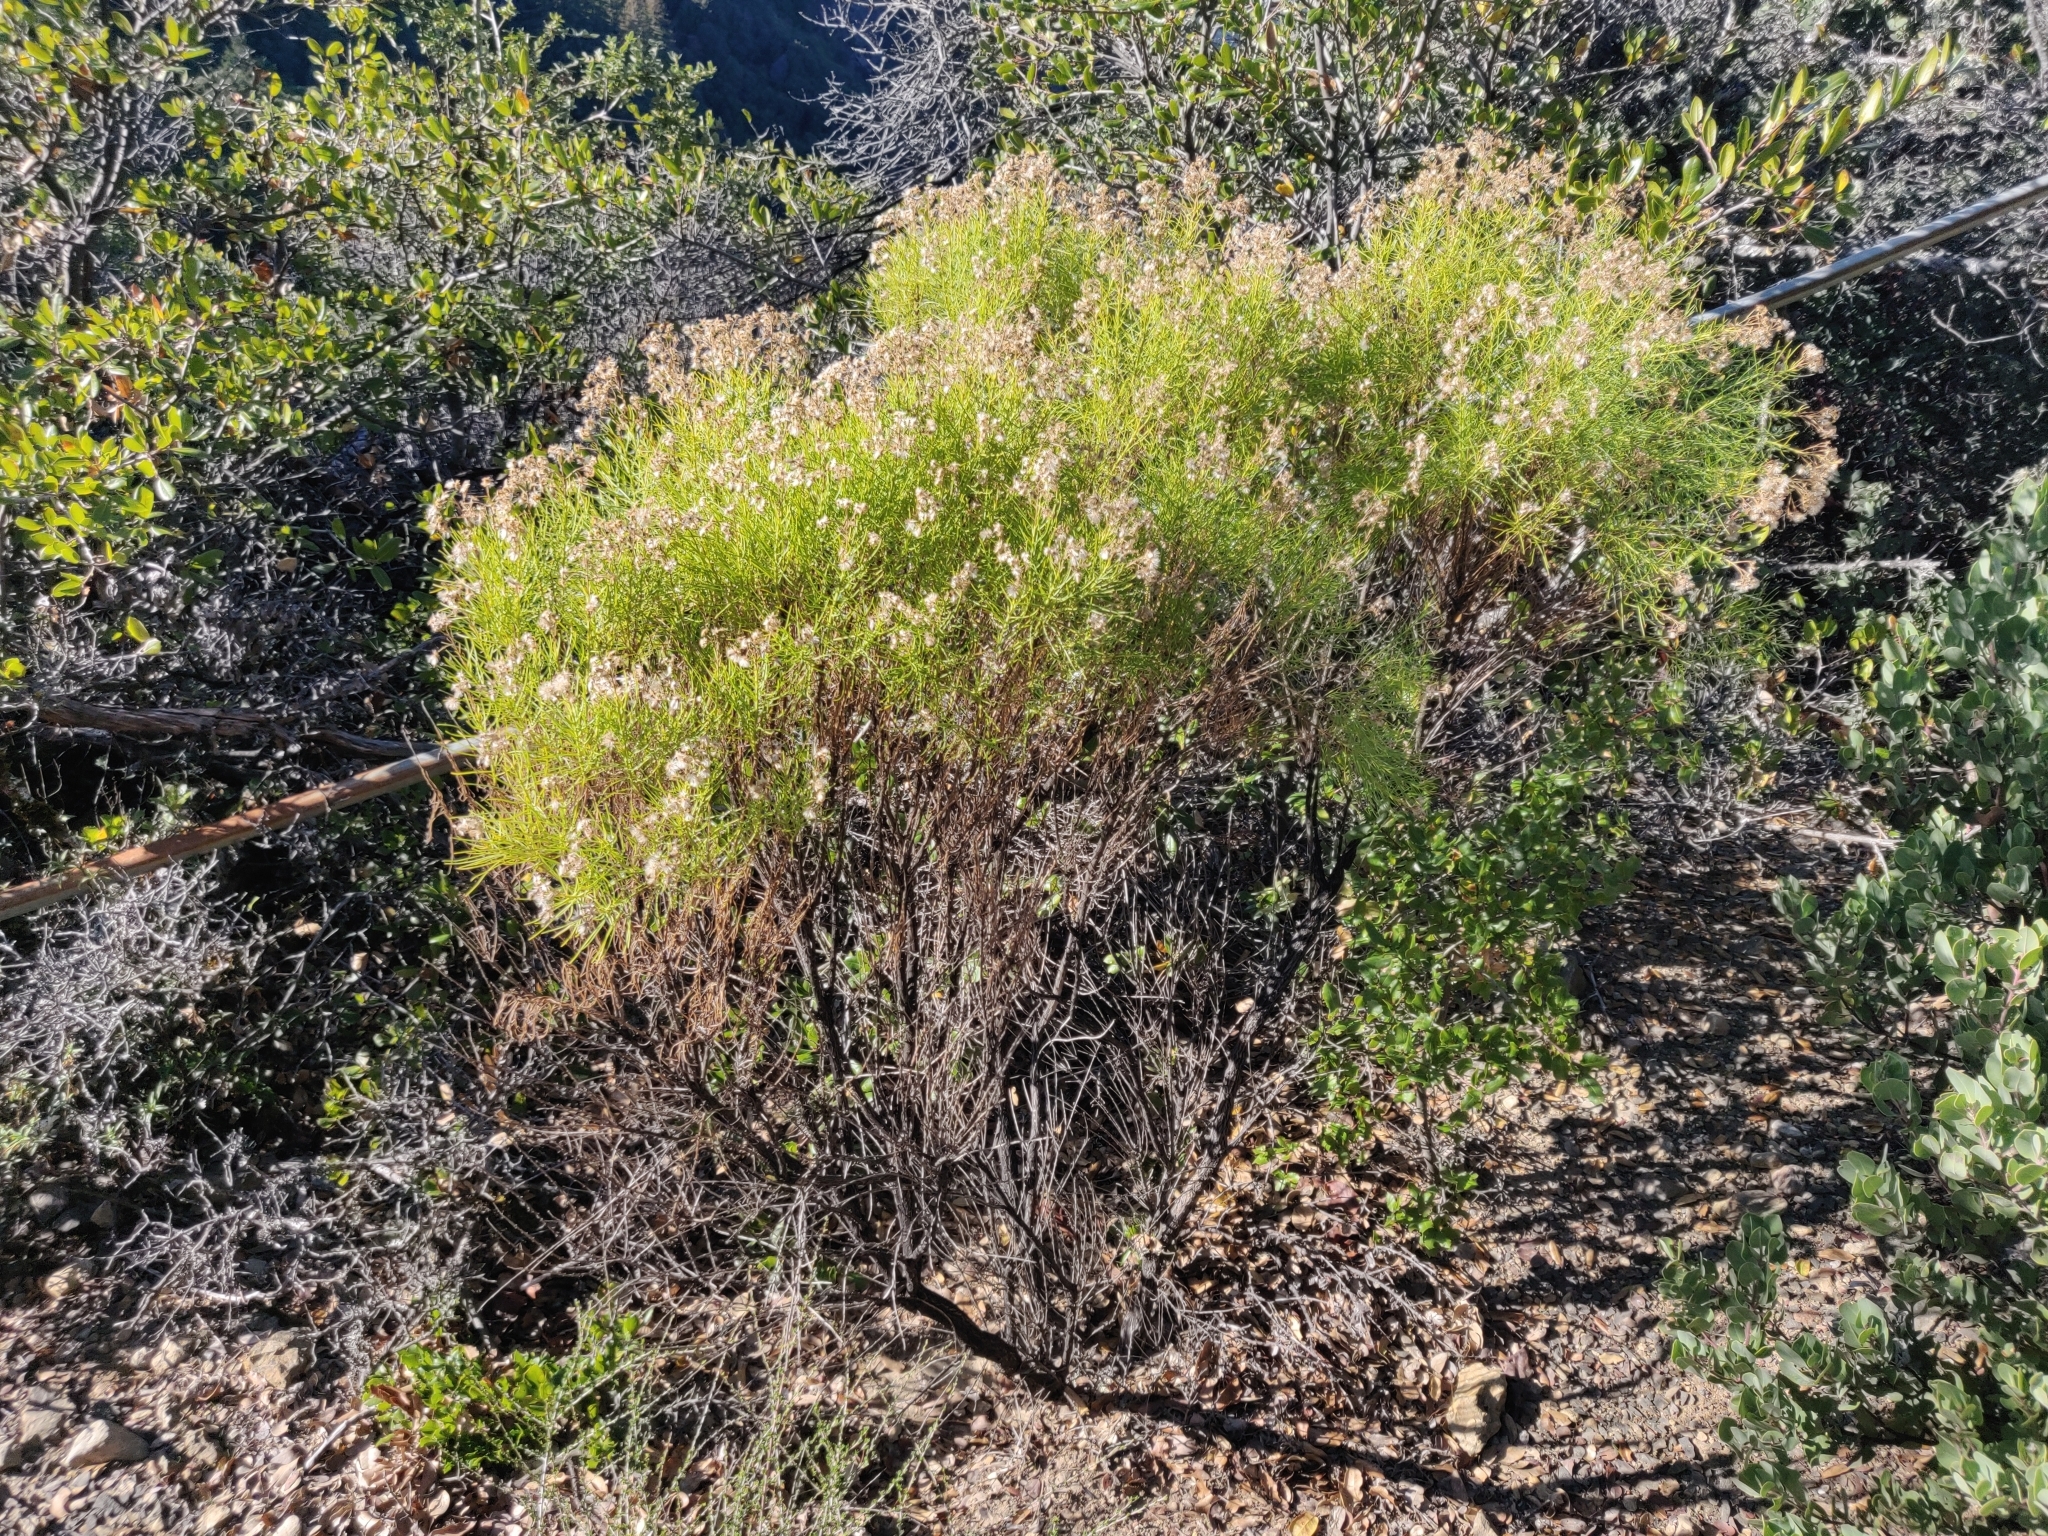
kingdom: Plantae
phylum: Tracheophyta
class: Magnoliopsida
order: Asterales
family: Asteraceae
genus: Ericameria
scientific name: Ericameria arborescens
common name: Goldenfleece
